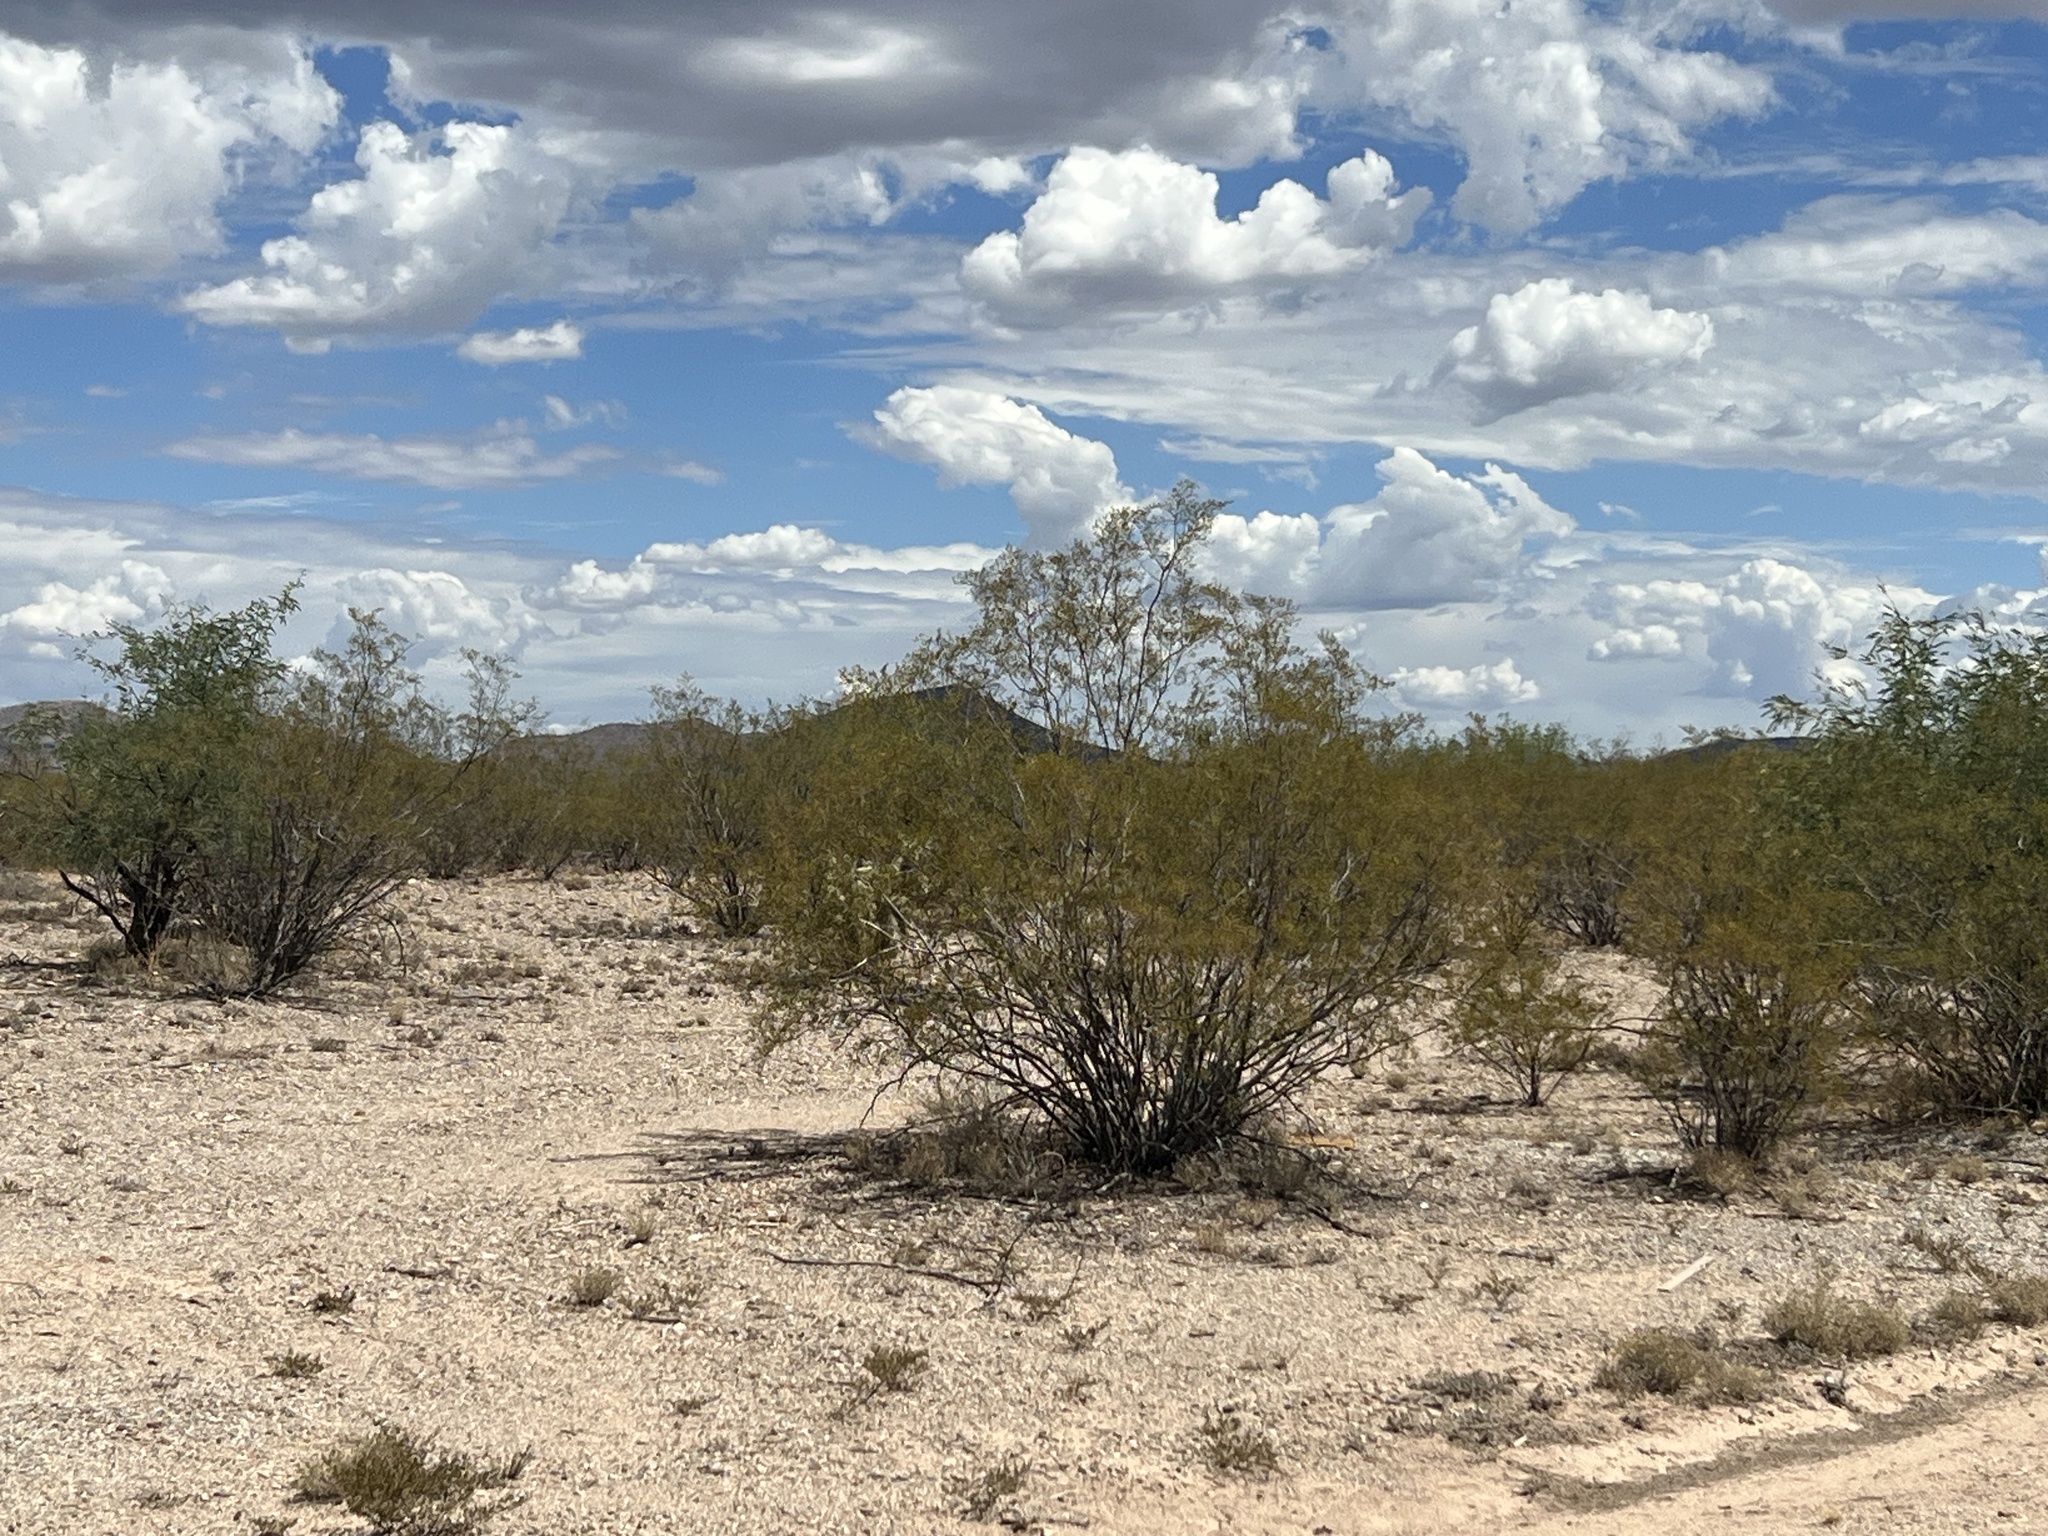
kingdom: Plantae
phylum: Tracheophyta
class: Magnoliopsida
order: Zygophyllales
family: Zygophyllaceae
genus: Larrea
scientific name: Larrea tridentata
